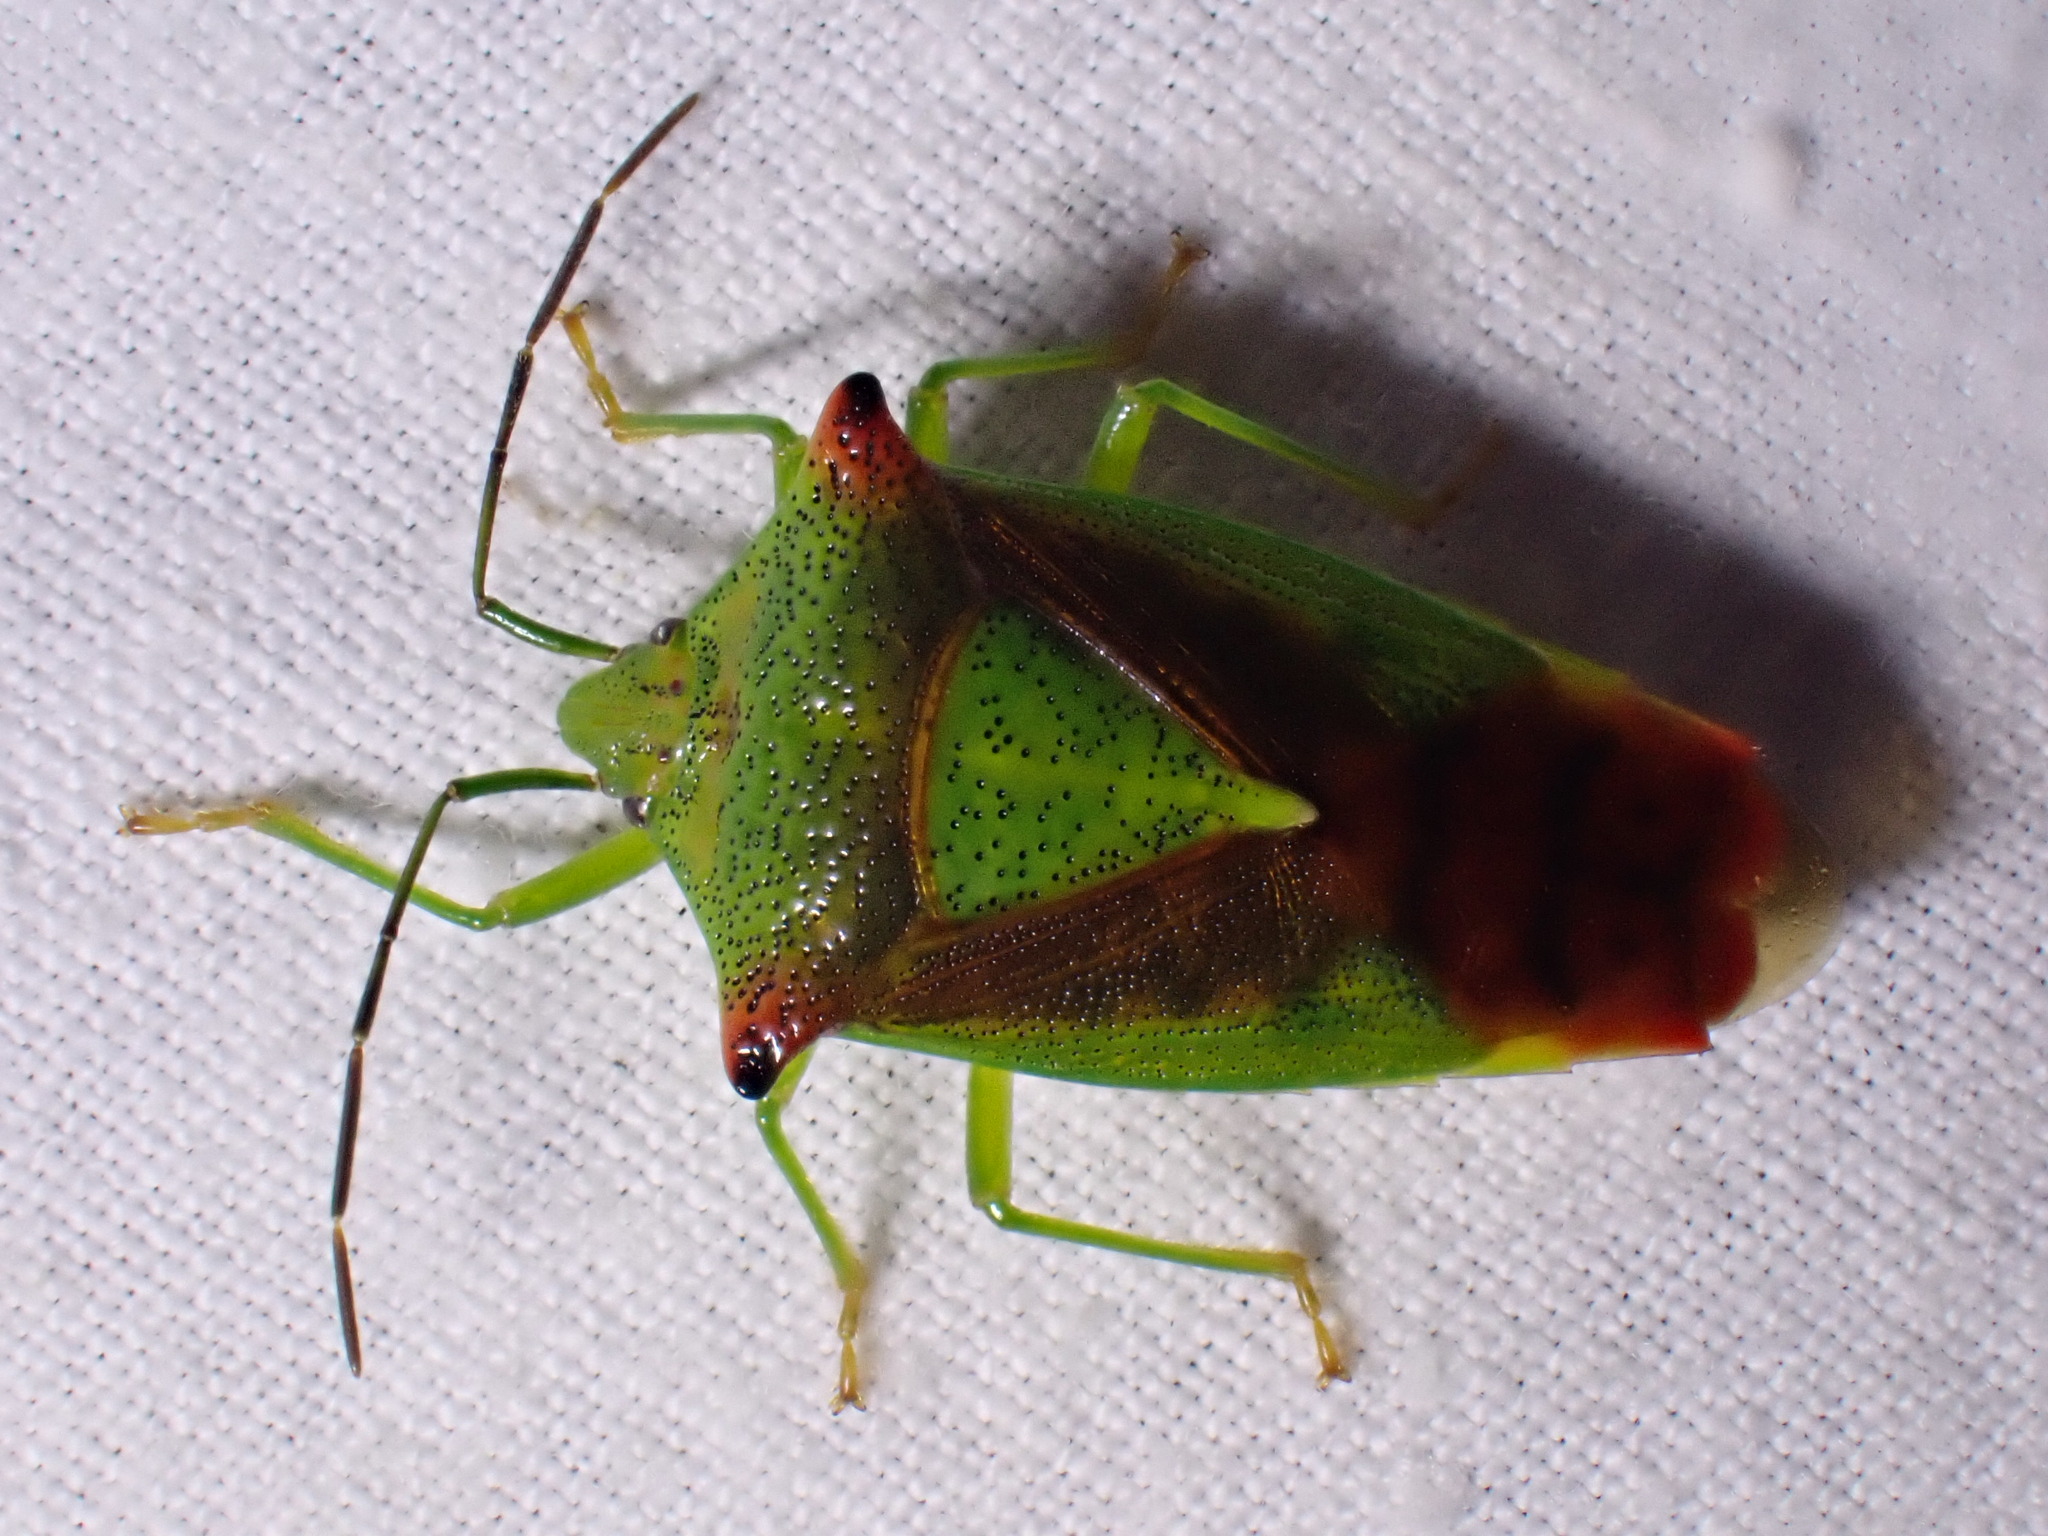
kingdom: Animalia
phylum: Arthropoda
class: Insecta
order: Hemiptera
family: Acanthosomatidae
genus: Acanthosoma
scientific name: Acanthosoma haemorrhoidale
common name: Hawthorn shieldbug
